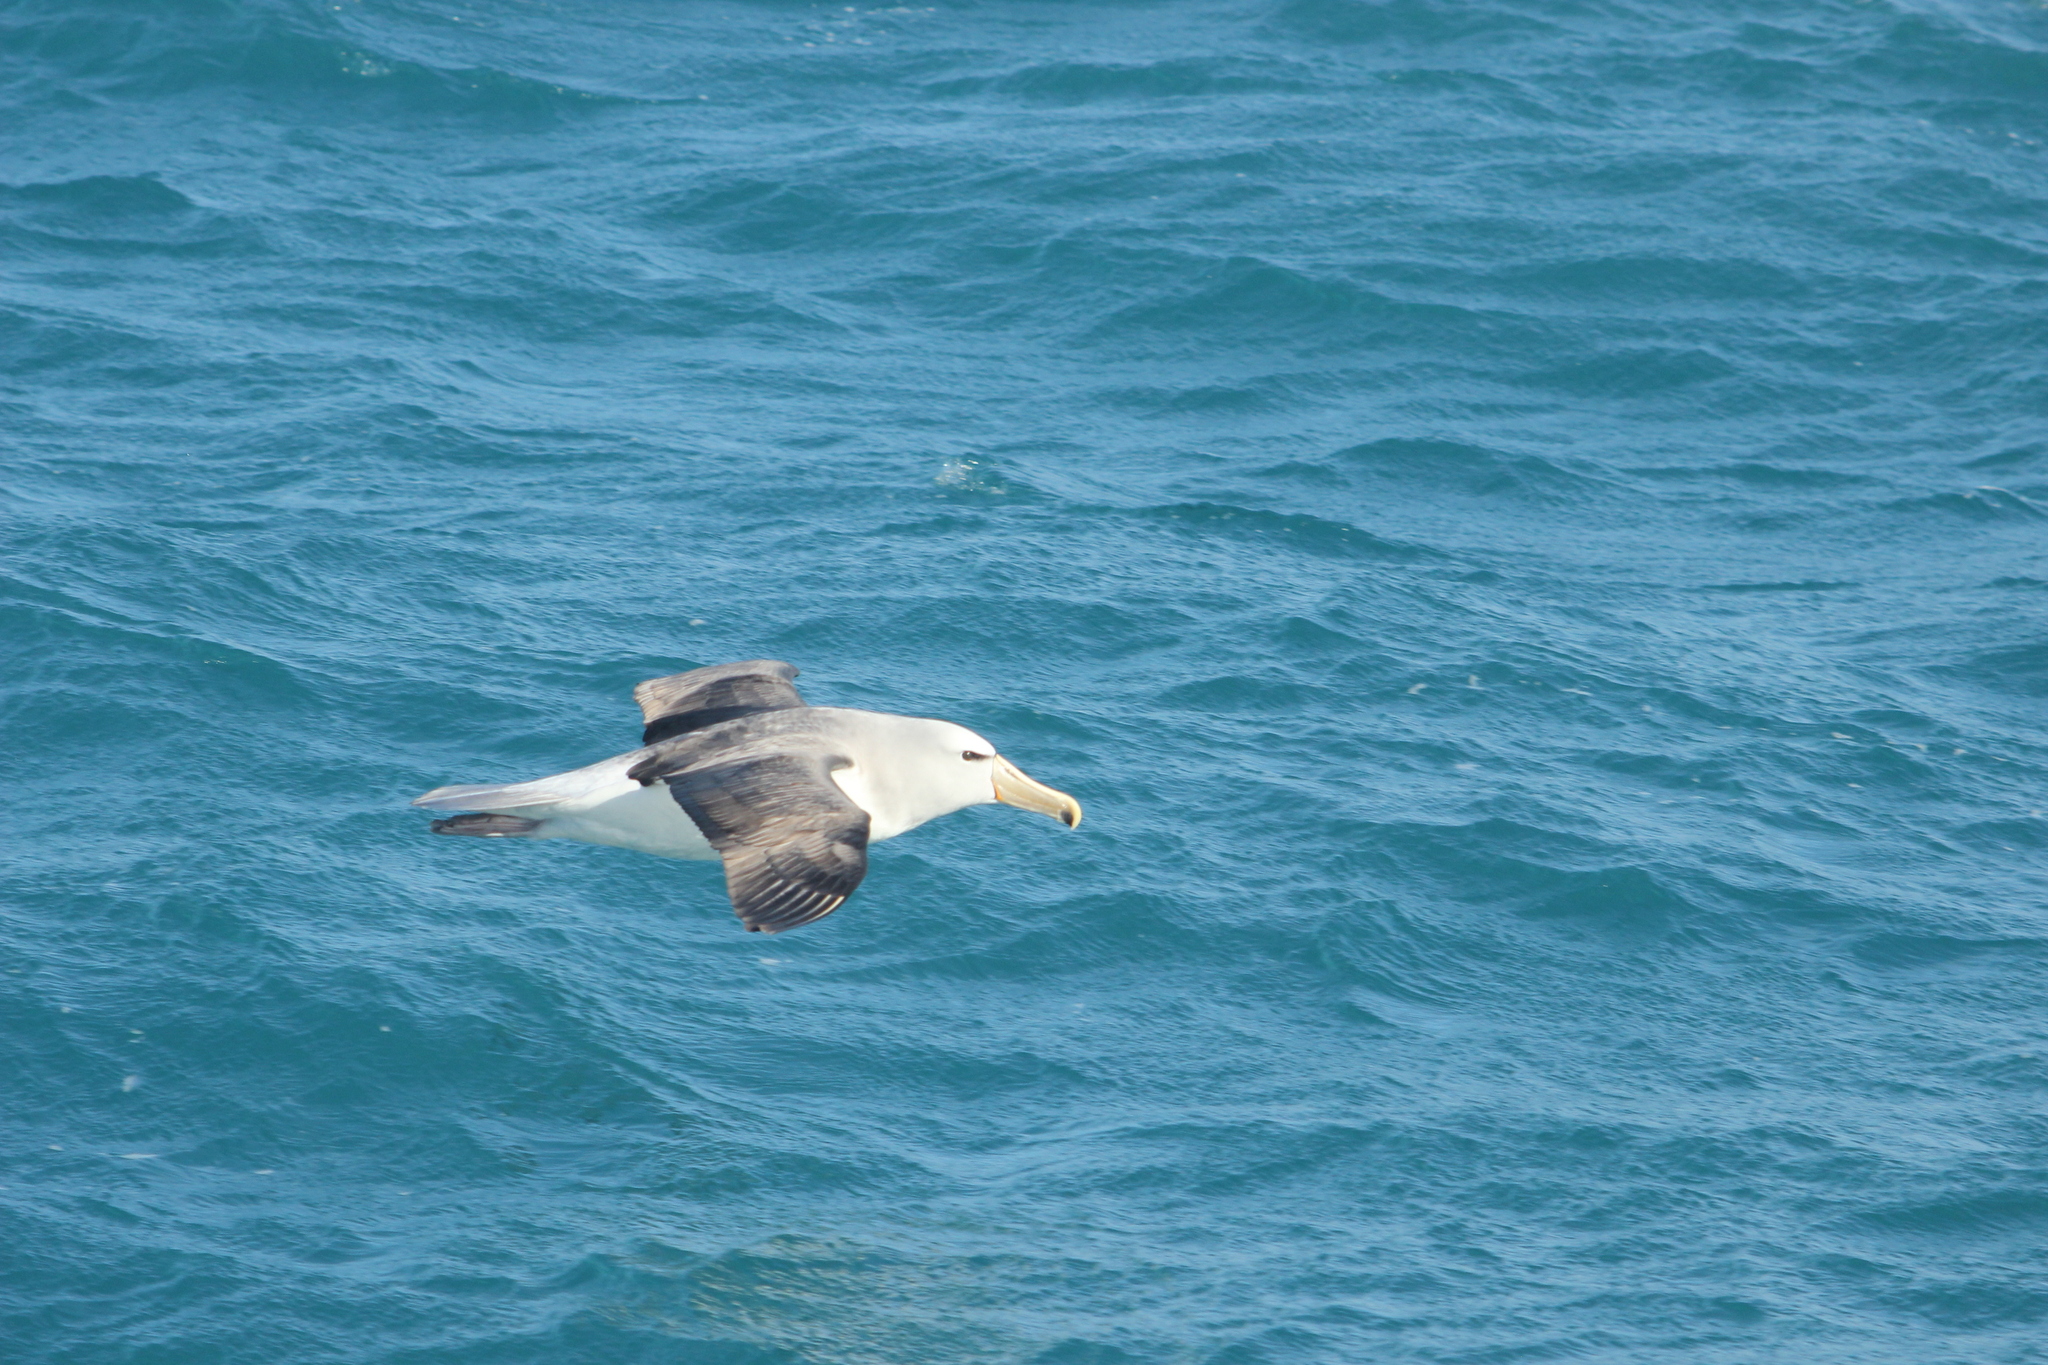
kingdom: Animalia
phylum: Chordata
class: Aves
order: Procellariiformes
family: Diomedeidae
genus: Thalassarche
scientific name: Thalassarche salvini
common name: Salvin's albatross
